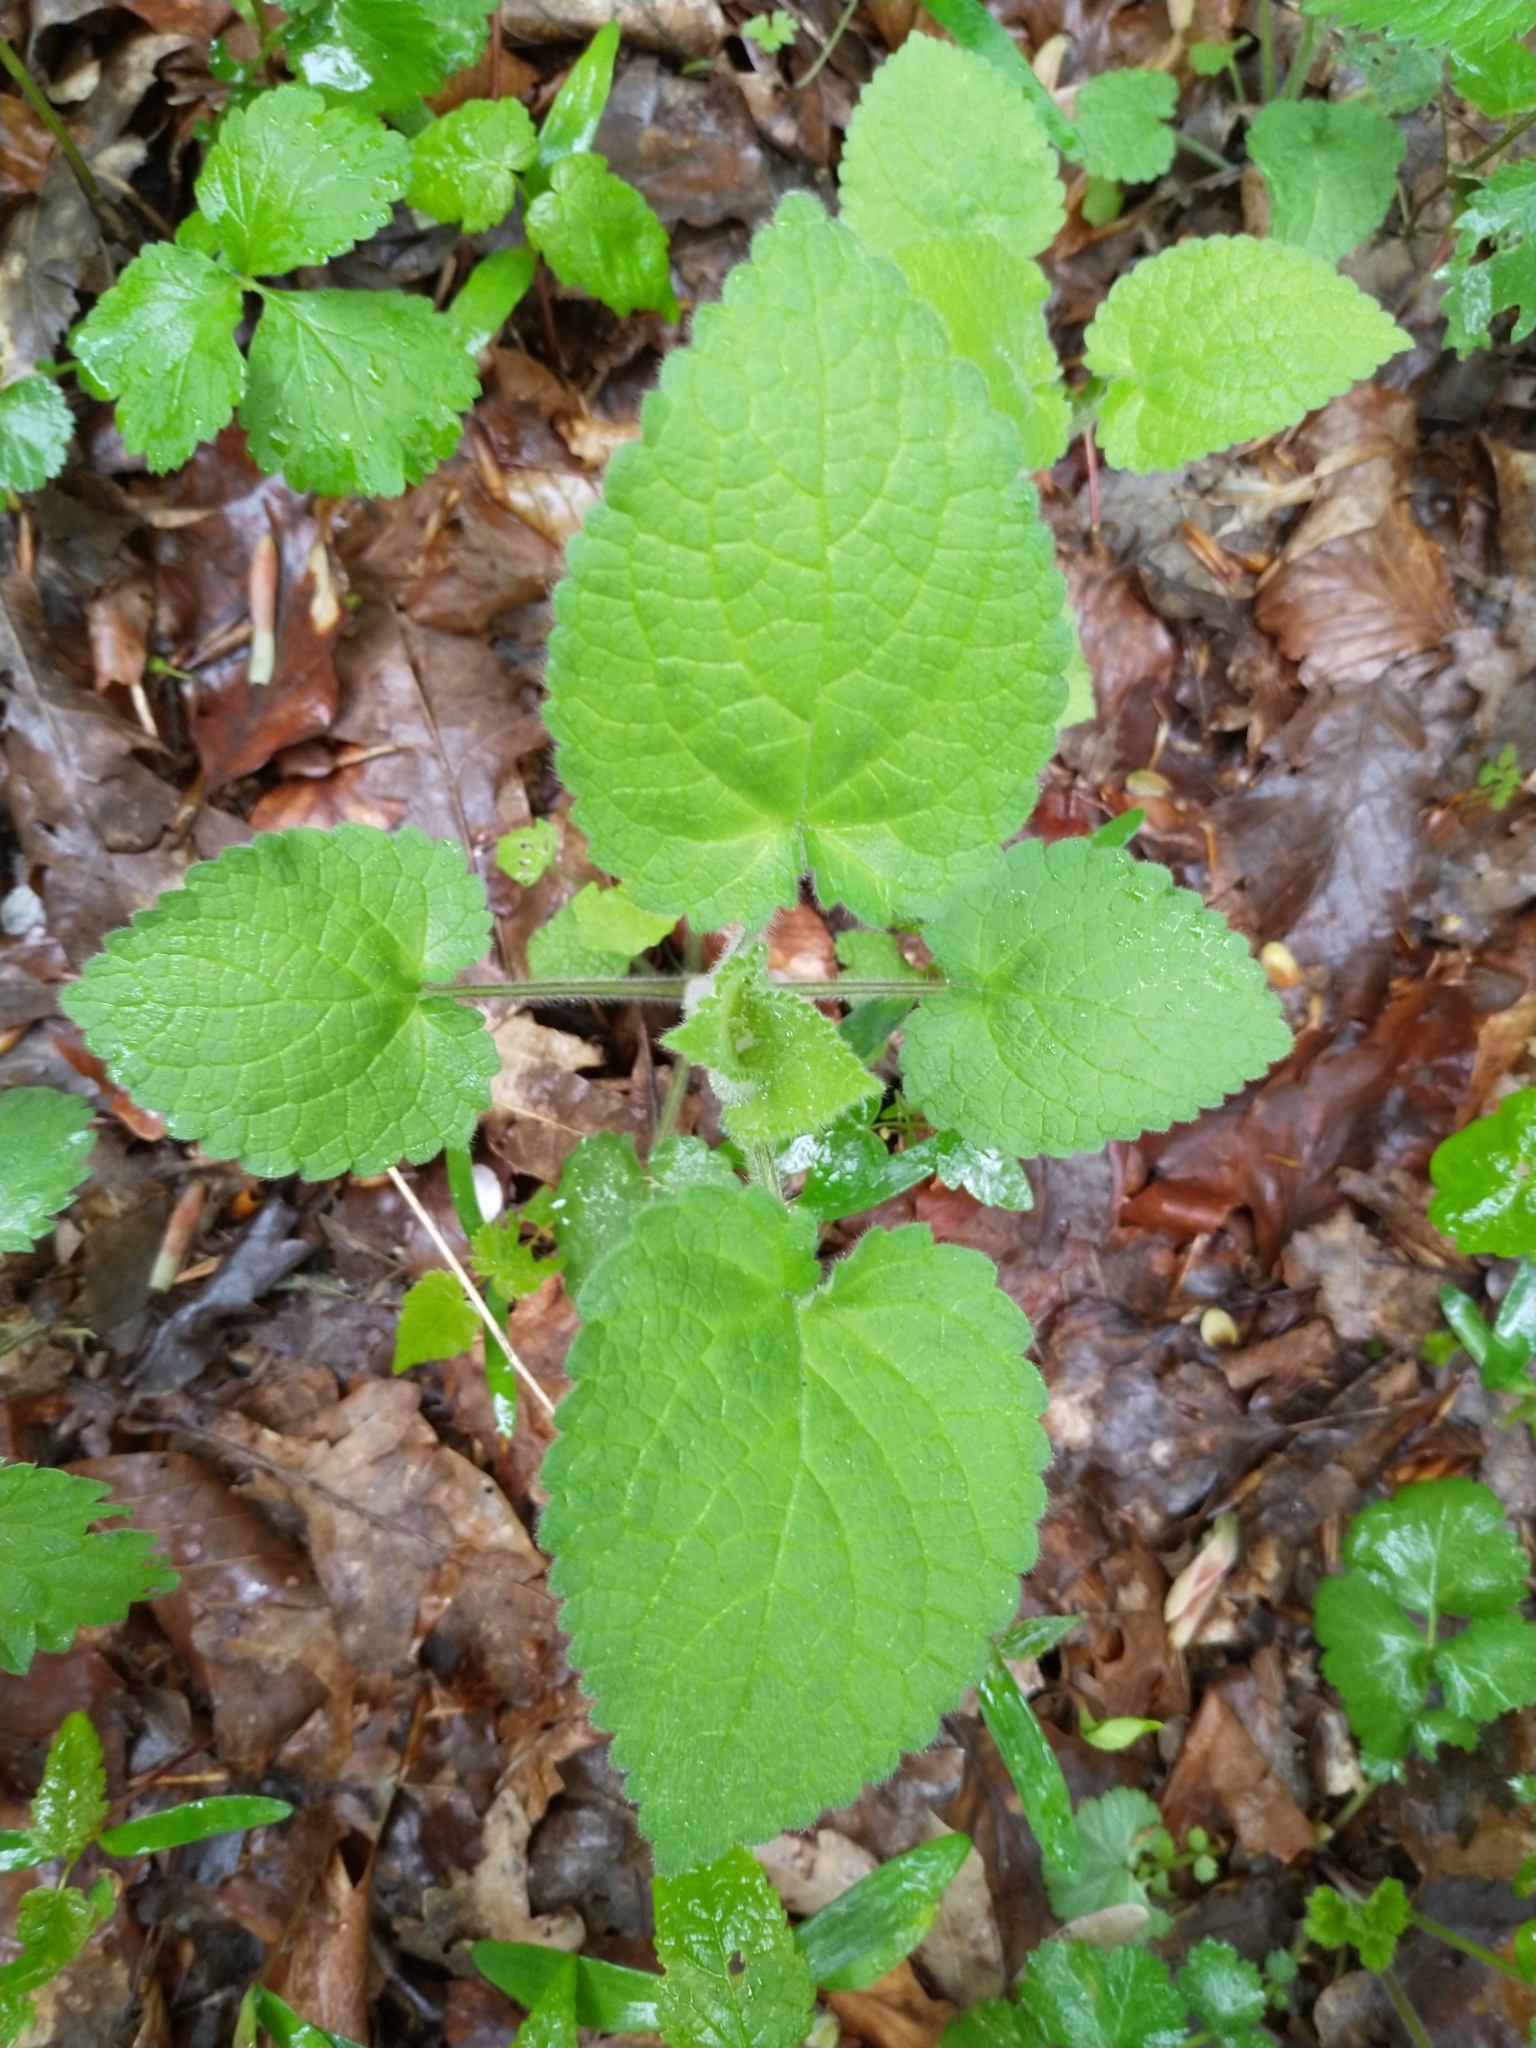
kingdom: Plantae
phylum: Tracheophyta
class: Magnoliopsida
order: Lamiales
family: Lamiaceae
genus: Stachys
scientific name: Stachys sylvatica
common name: Hedge woundwort
